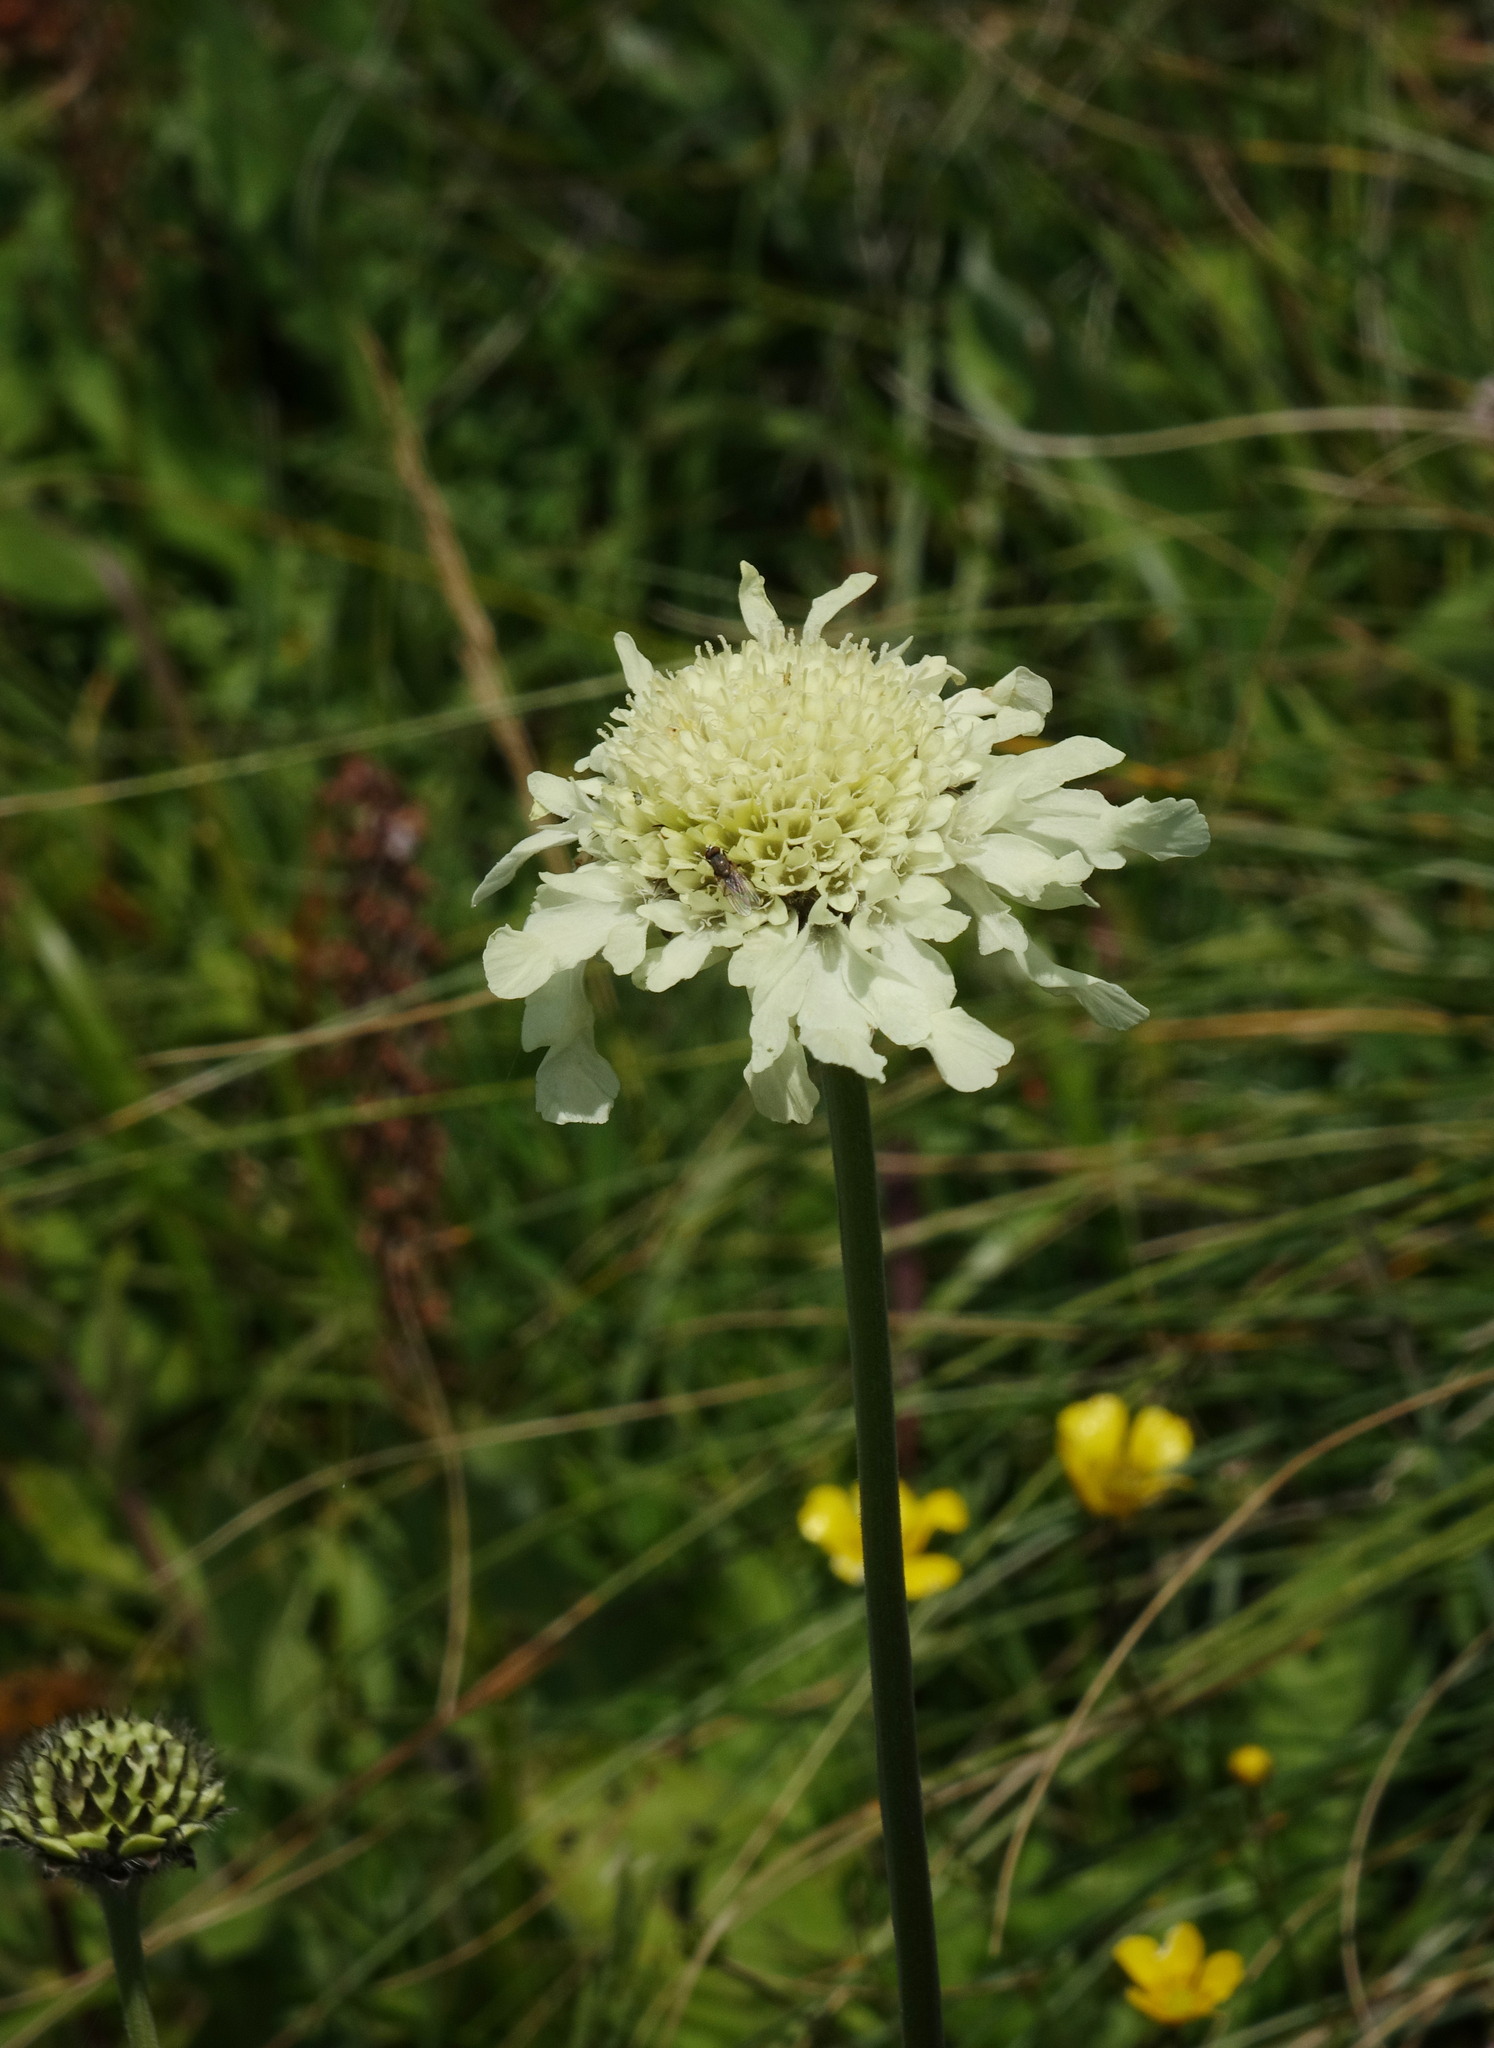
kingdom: Plantae
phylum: Tracheophyta
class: Magnoliopsida
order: Dipsacales
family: Caprifoliaceae
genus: Cephalaria
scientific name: Cephalaria gigantea
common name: Tatarian cephalaria
